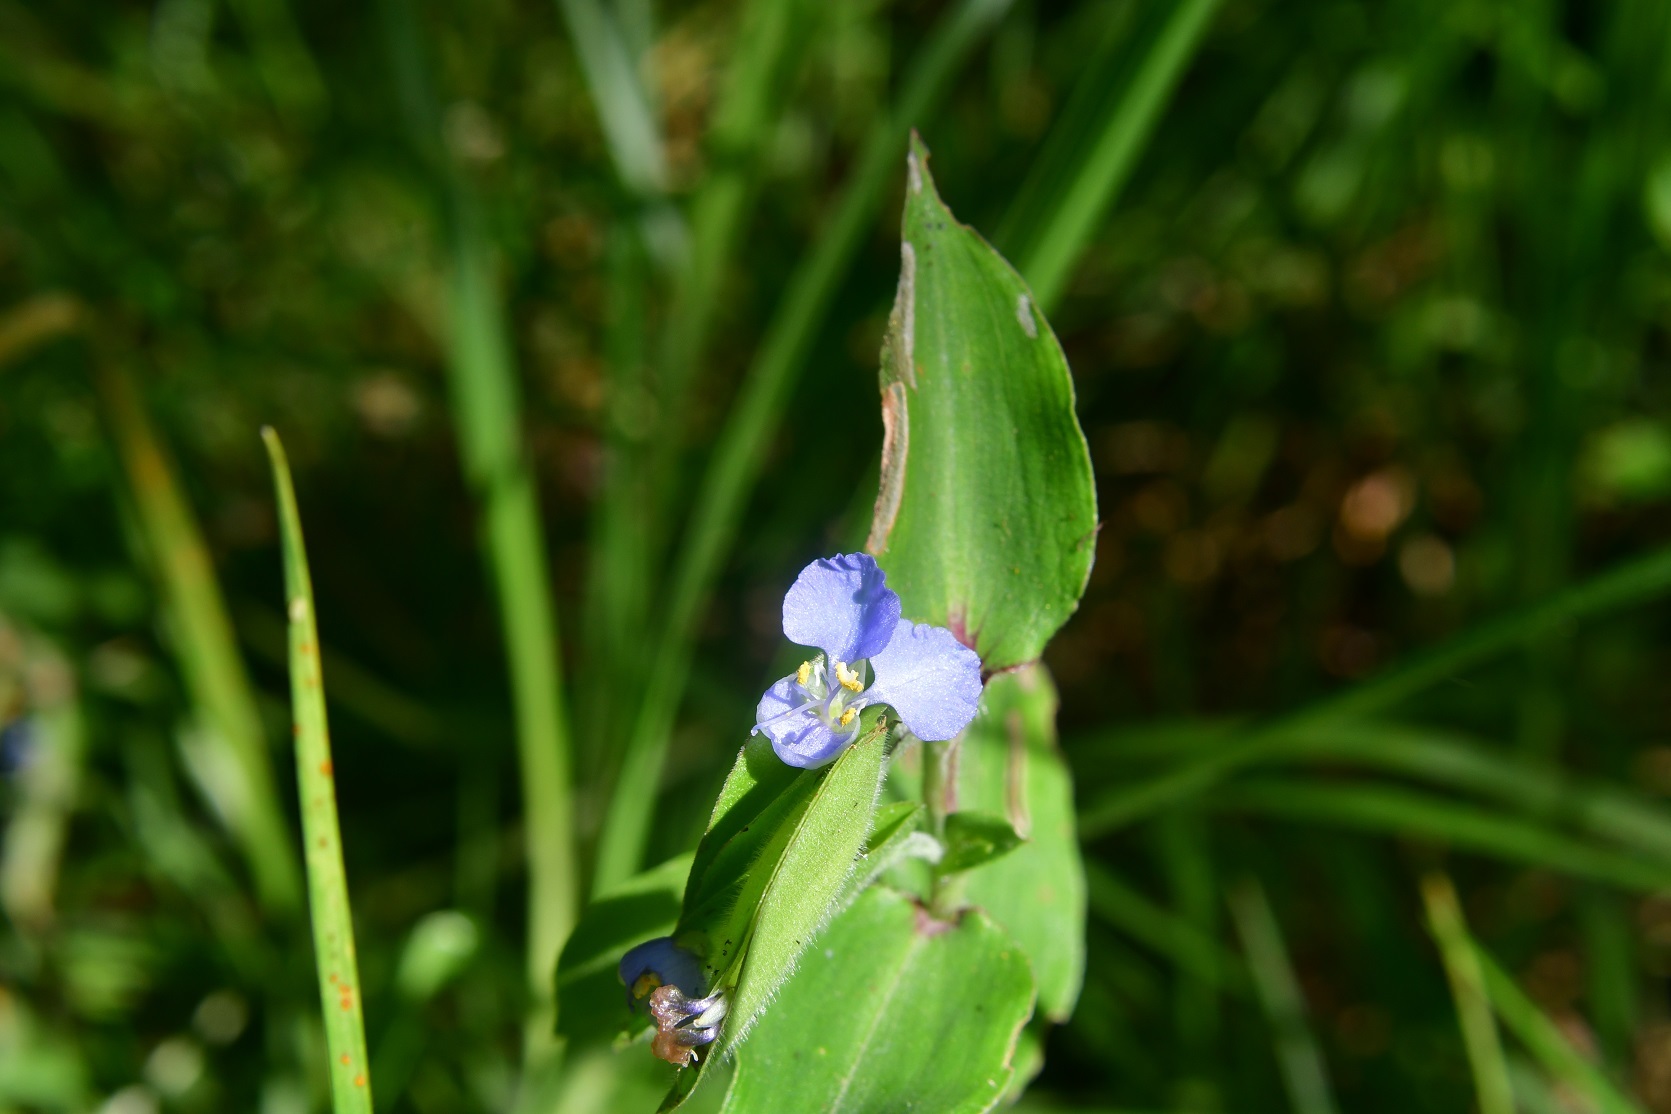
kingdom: Plantae
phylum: Tracheophyta
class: Liliopsida
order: Commelinales
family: Commelinaceae
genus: Commelina
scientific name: Commelina diffusa
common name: Climbing dayflower
